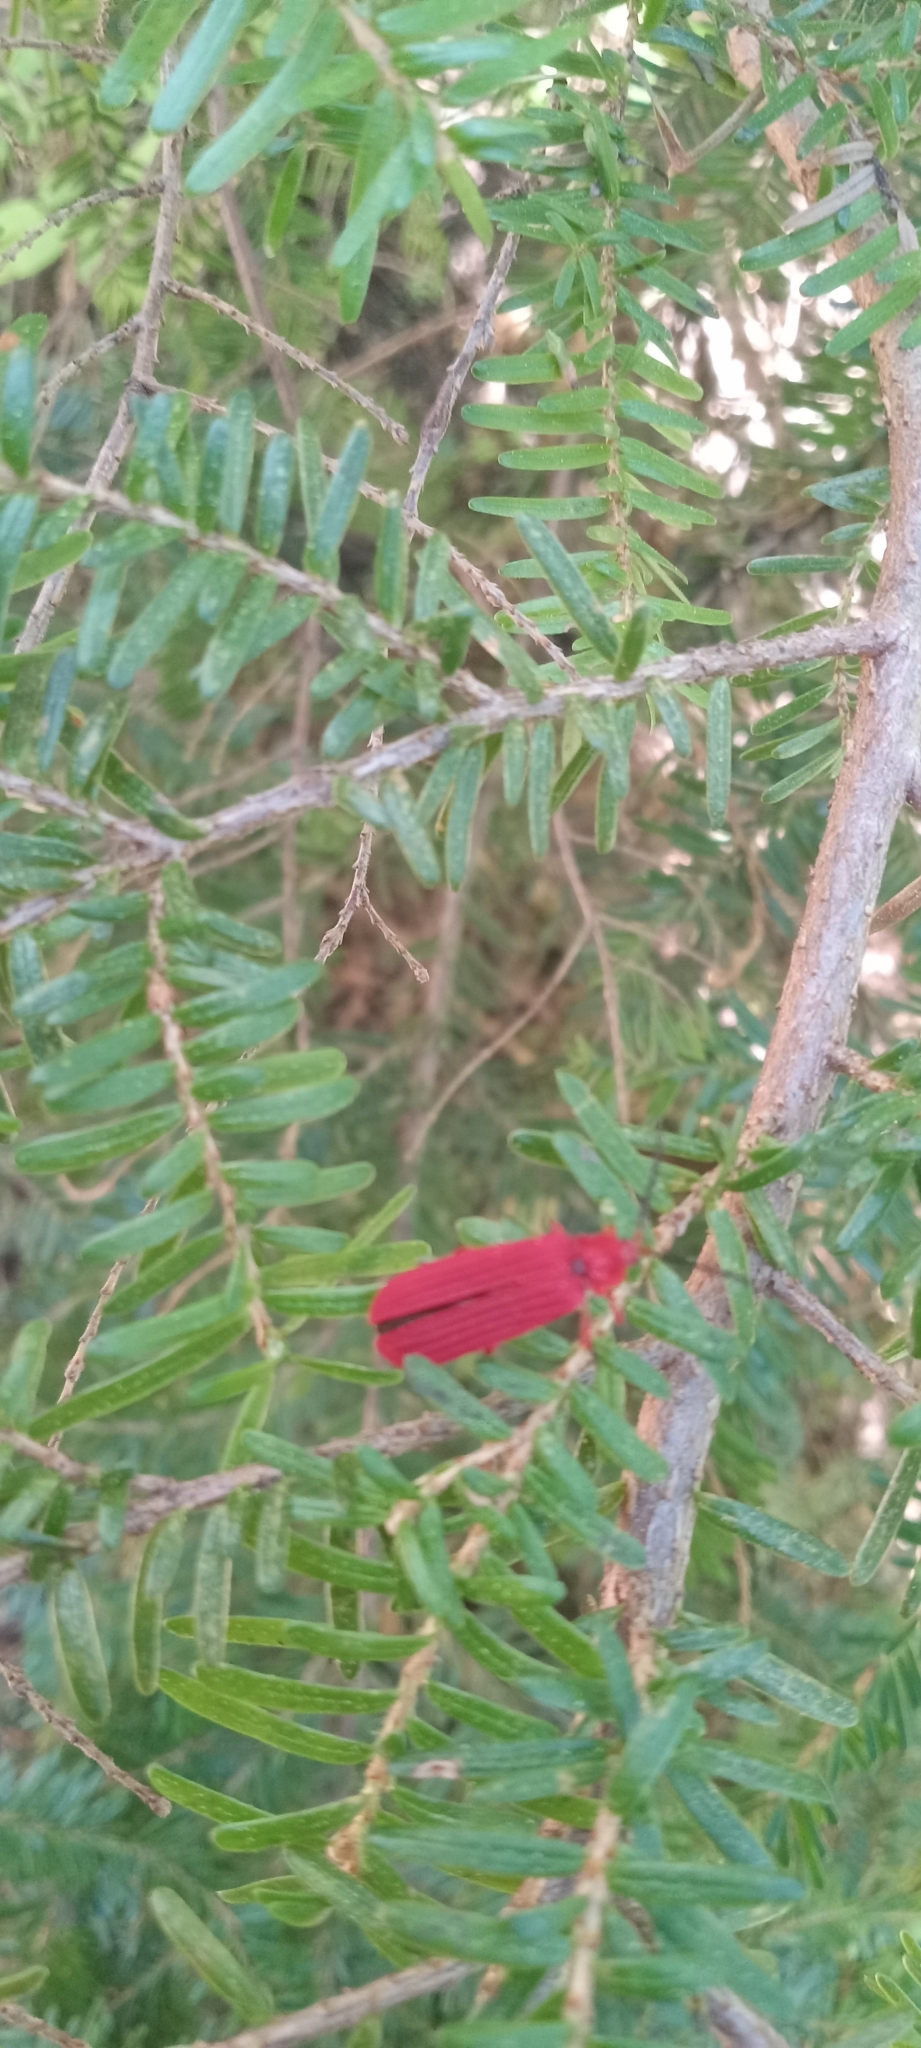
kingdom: Animalia
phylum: Arthropoda
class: Insecta
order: Coleoptera
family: Lycidae
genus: Punicealis
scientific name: Punicealis hamata
